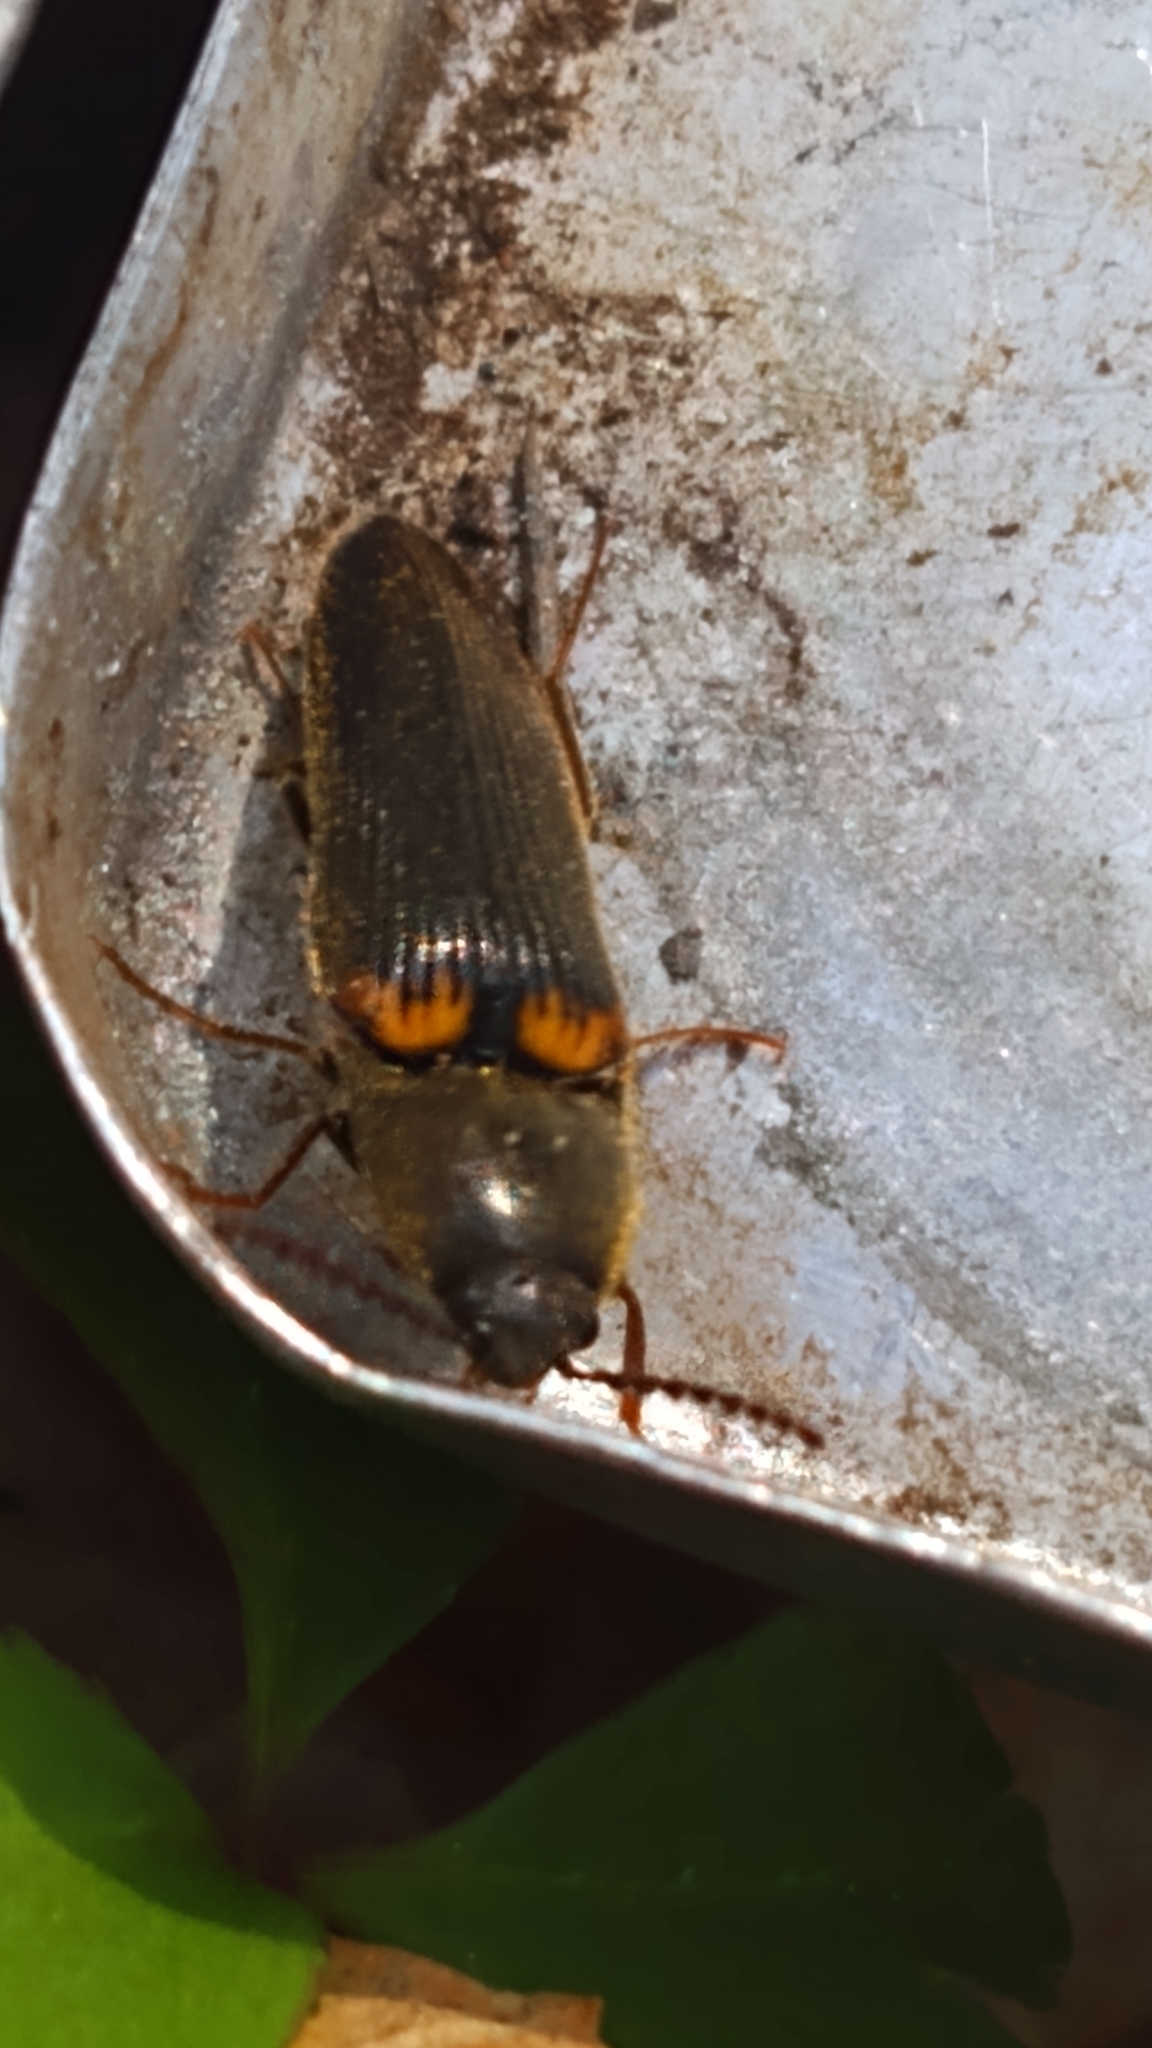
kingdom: Animalia
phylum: Arthropoda
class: Insecta
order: Coleoptera
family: Elateridae
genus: Ampedus
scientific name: Ampedus protervus
